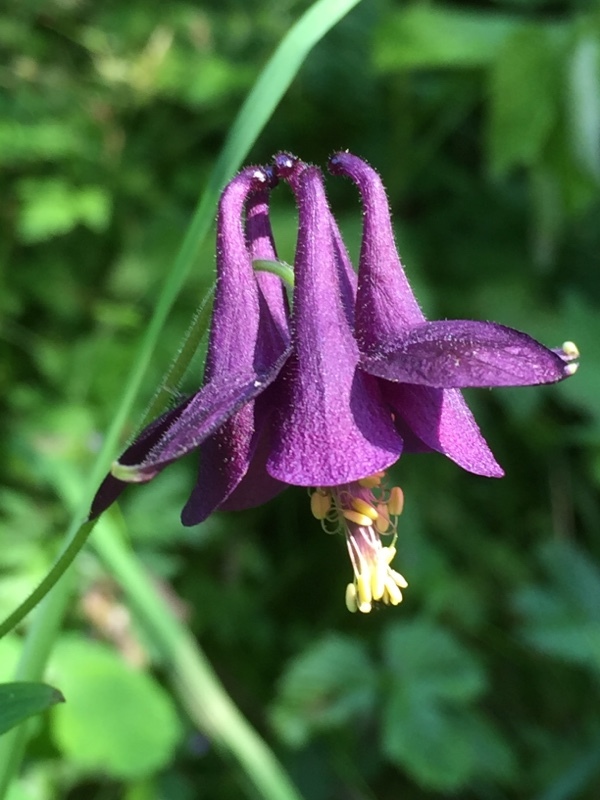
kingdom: Plantae
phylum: Tracheophyta
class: Magnoliopsida
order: Ranunculales
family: Ranunculaceae
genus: Aquilegia
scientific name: Aquilegia atrata
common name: Dark columbine
